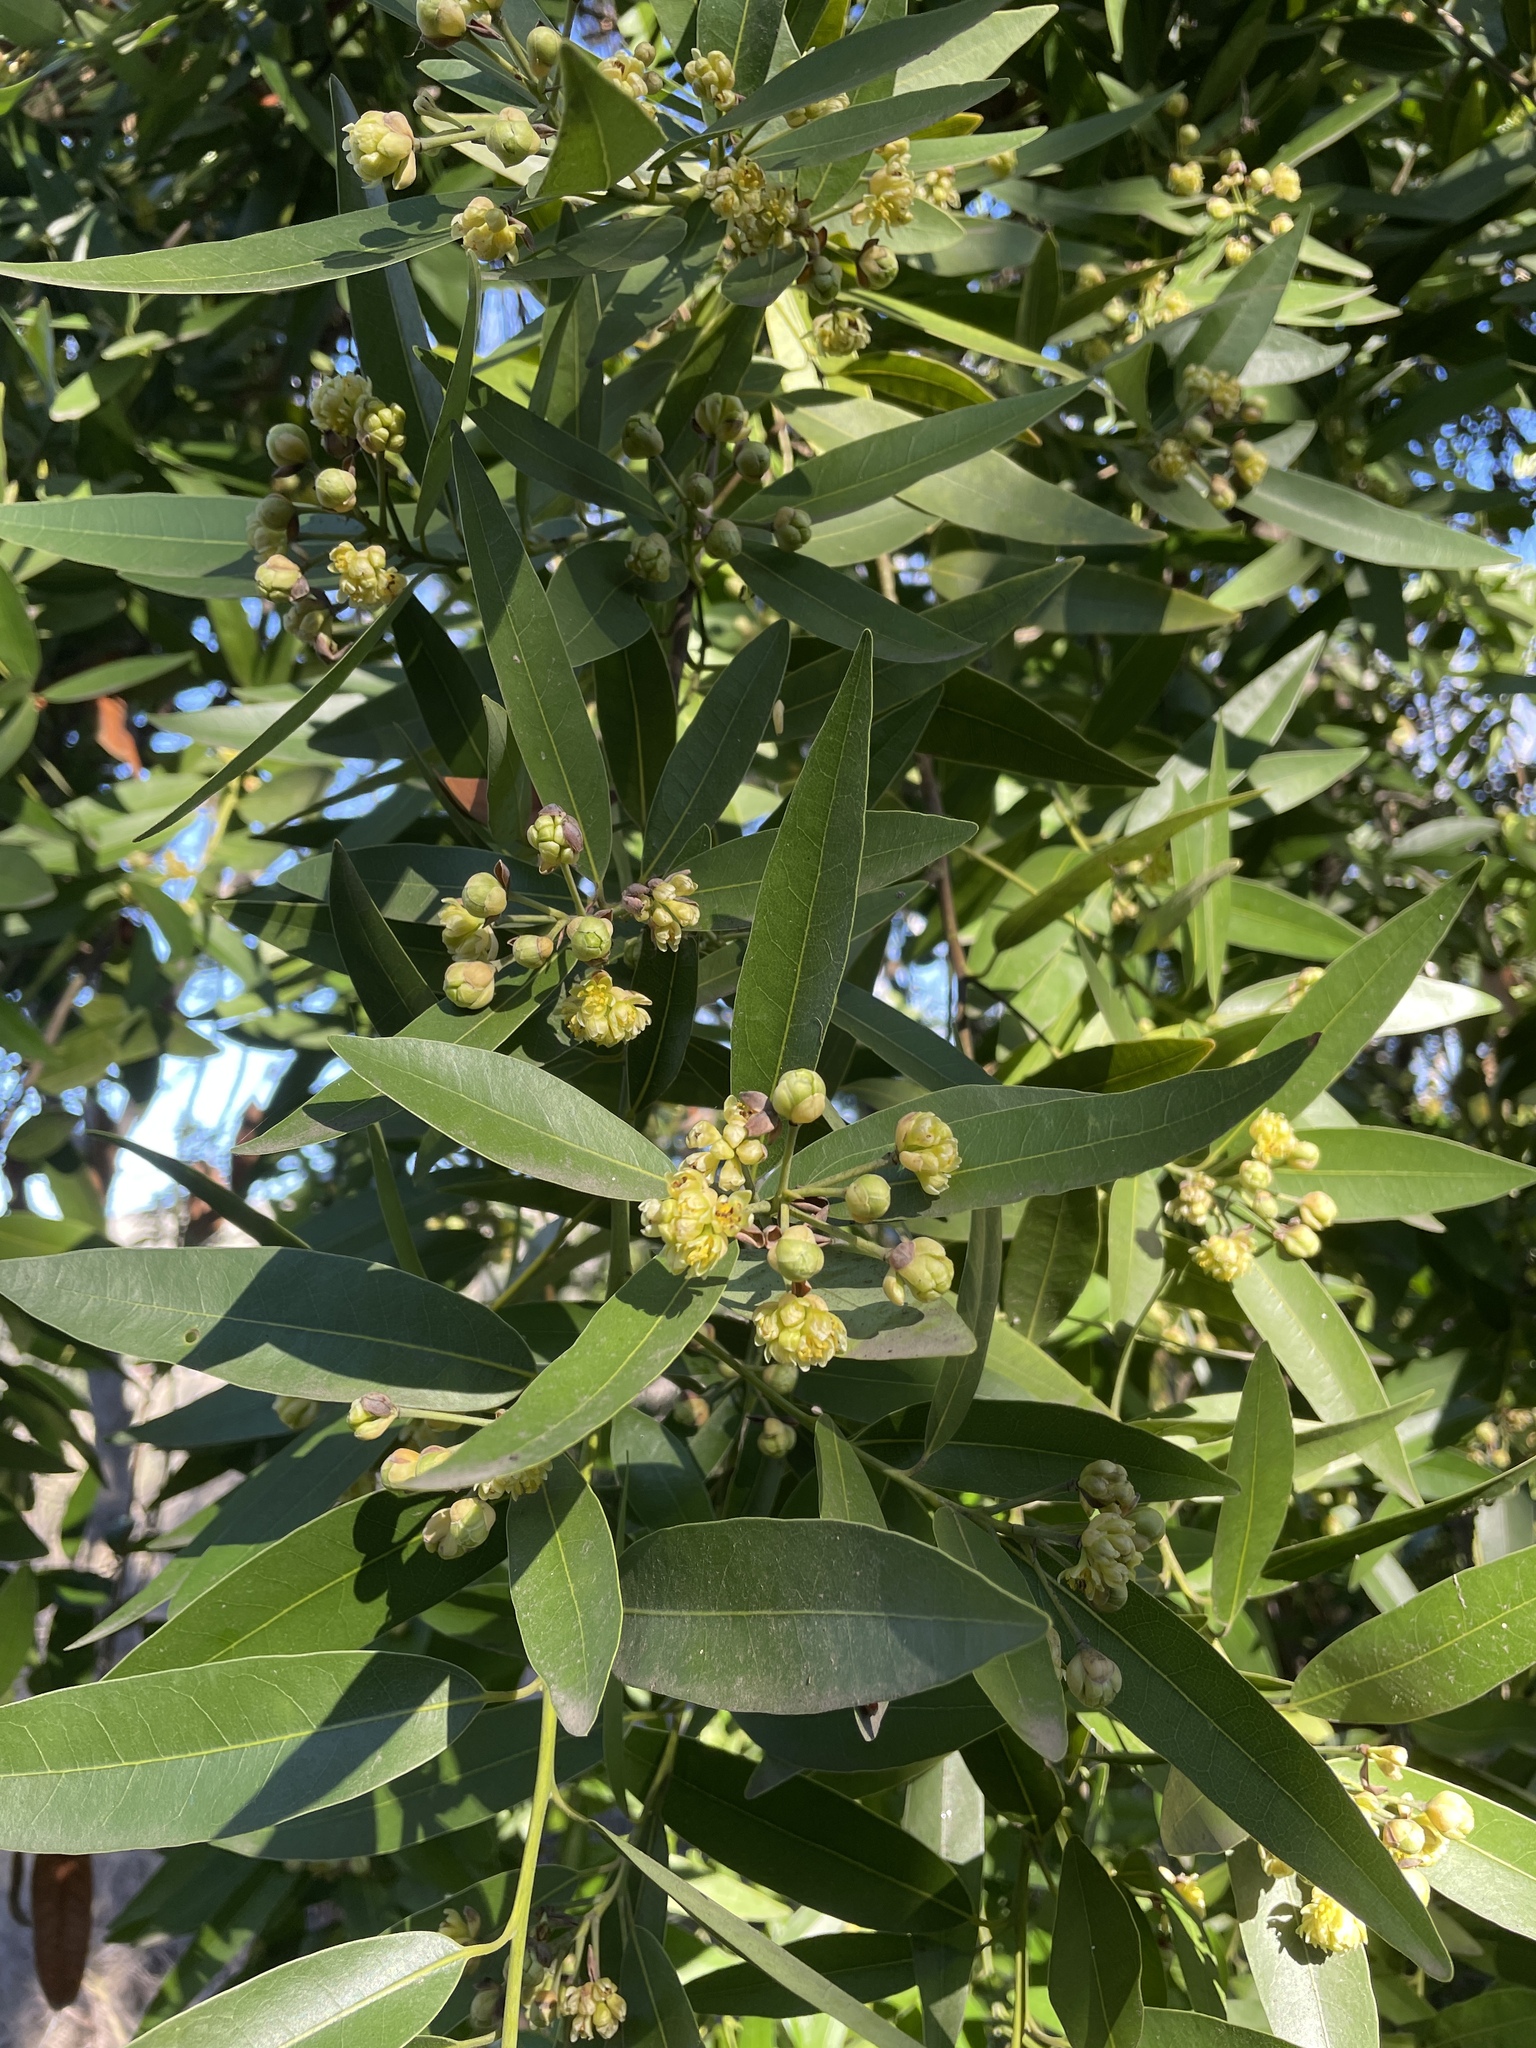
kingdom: Plantae
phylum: Tracheophyta
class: Magnoliopsida
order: Laurales
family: Lauraceae
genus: Umbellularia
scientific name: Umbellularia californica
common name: California bay
